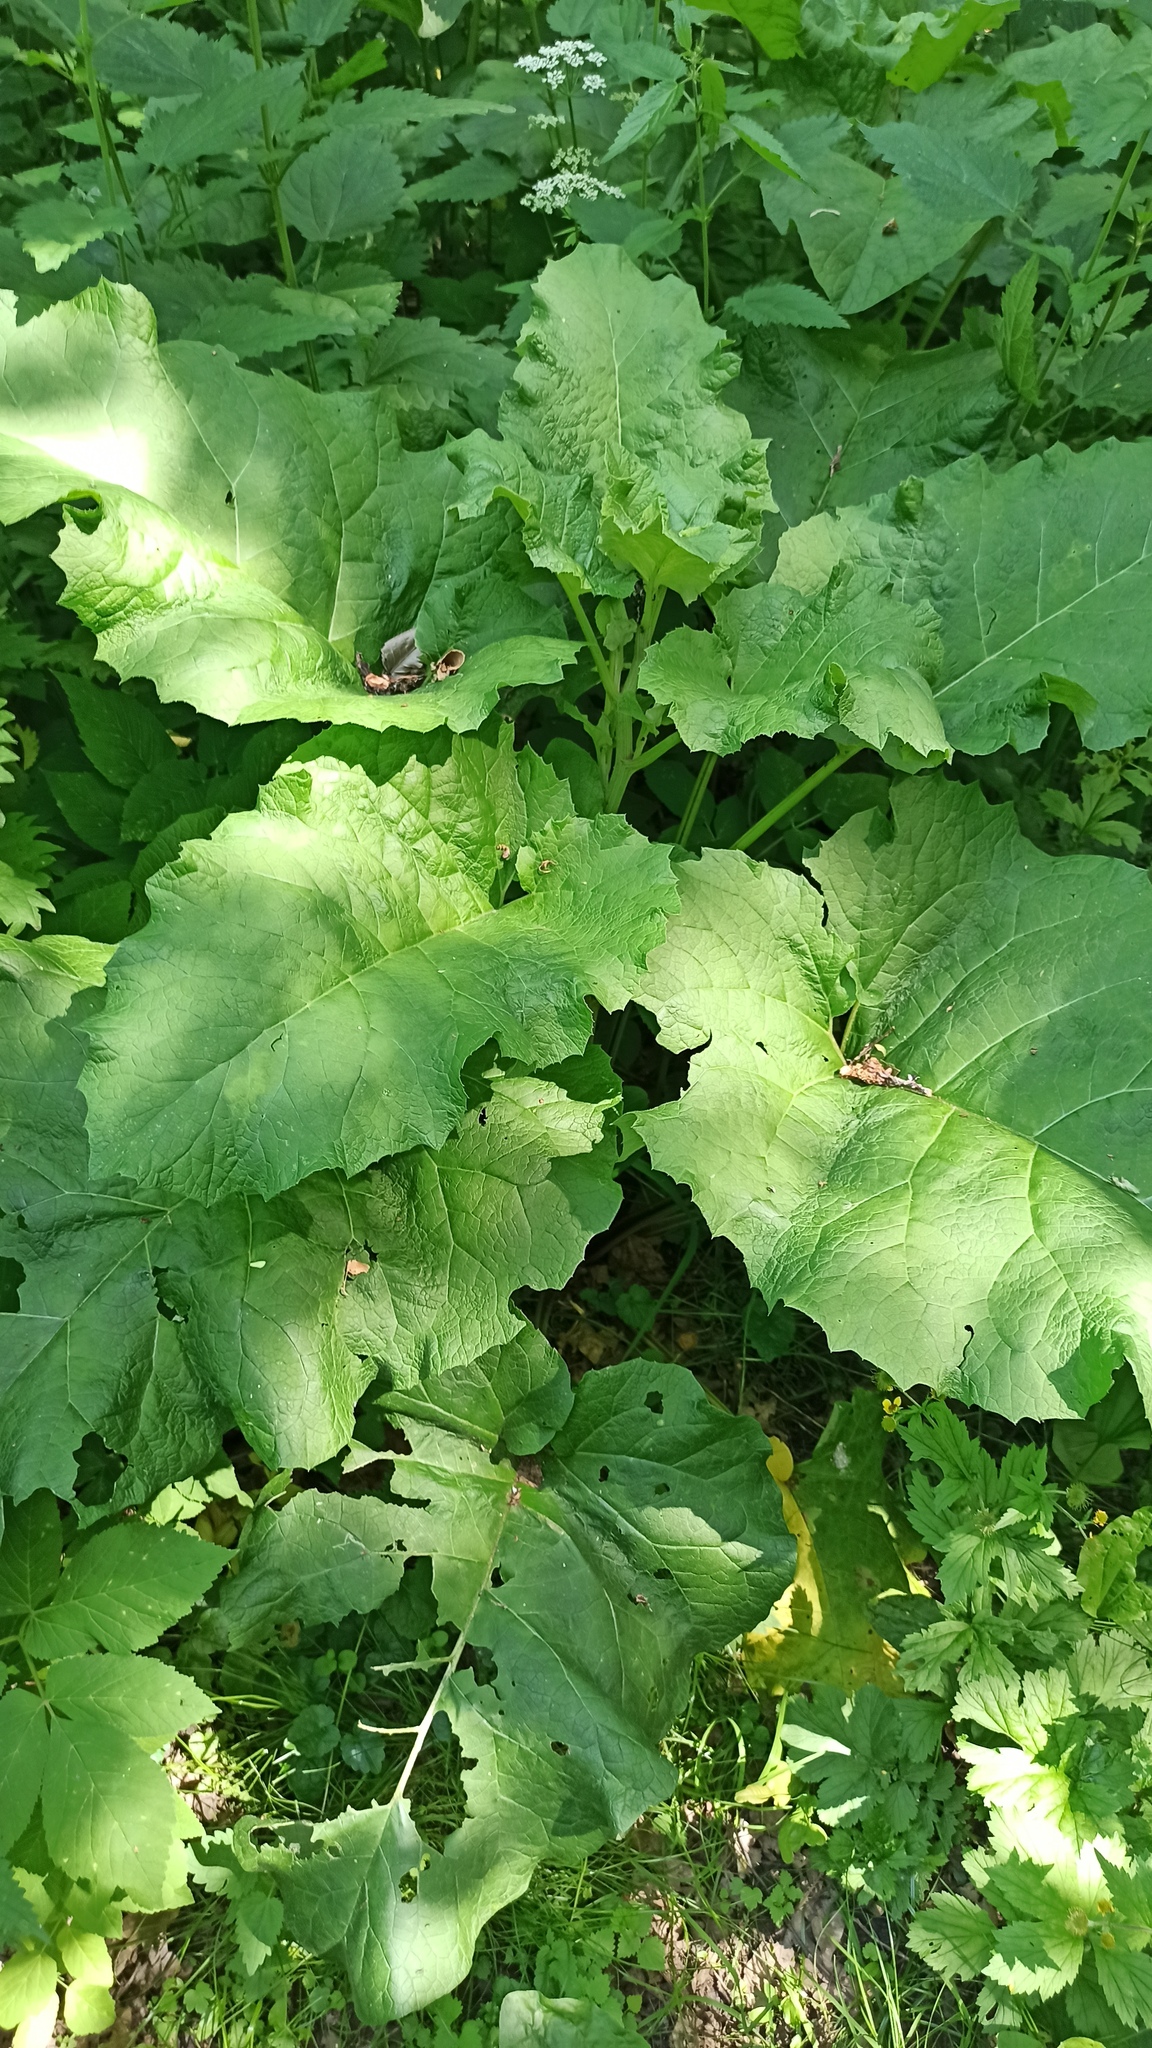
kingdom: Plantae
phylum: Tracheophyta
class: Magnoliopsida
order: Asterales
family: Asteraceae
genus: Arctium
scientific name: Arctium tomentosum
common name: Woolly burdock
